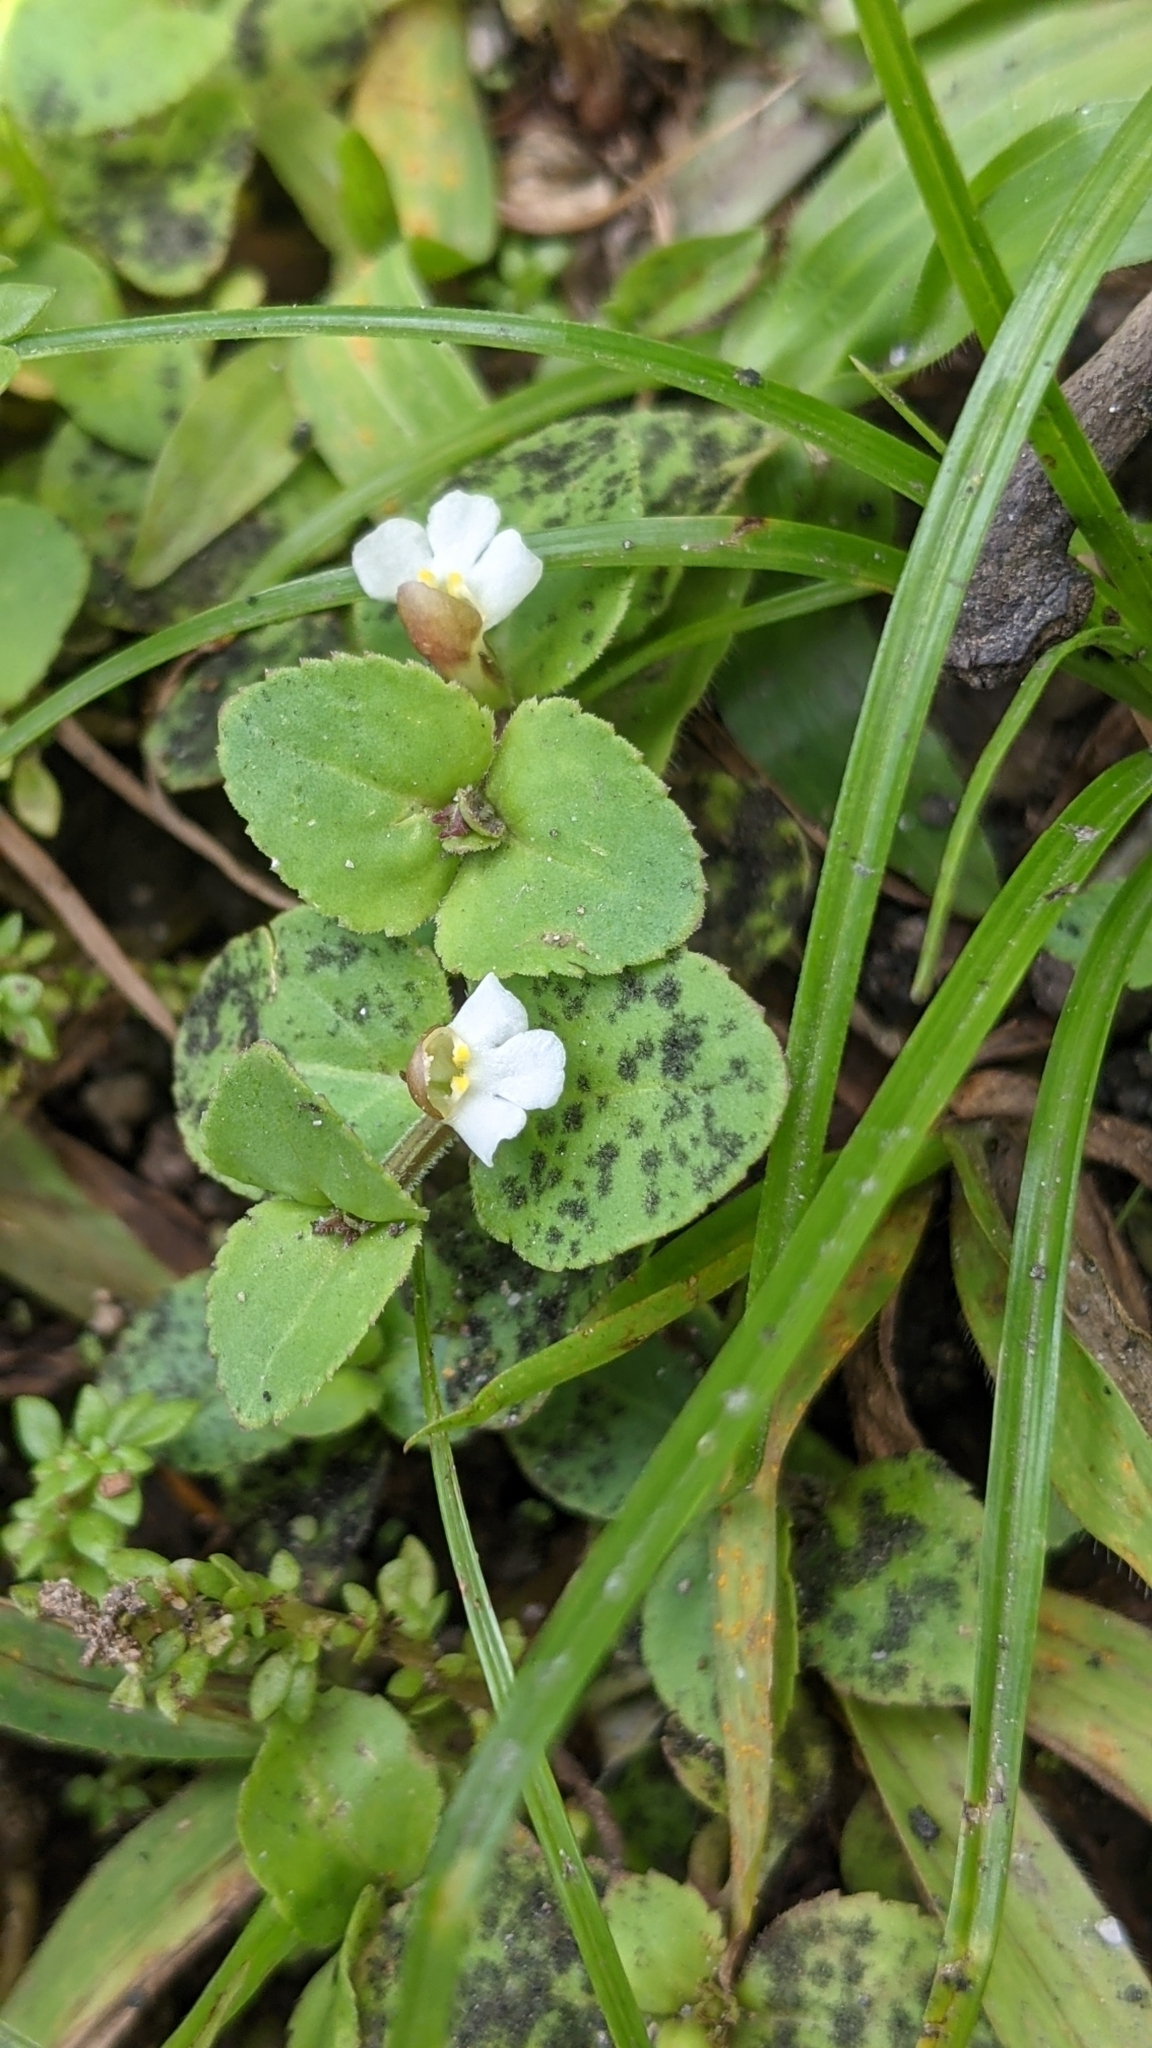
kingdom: Plantae
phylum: Tracheophyta
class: Magnoliopsida
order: Lamiales
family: Linderniaceae
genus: Vandellia
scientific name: Vandellia diffusa
